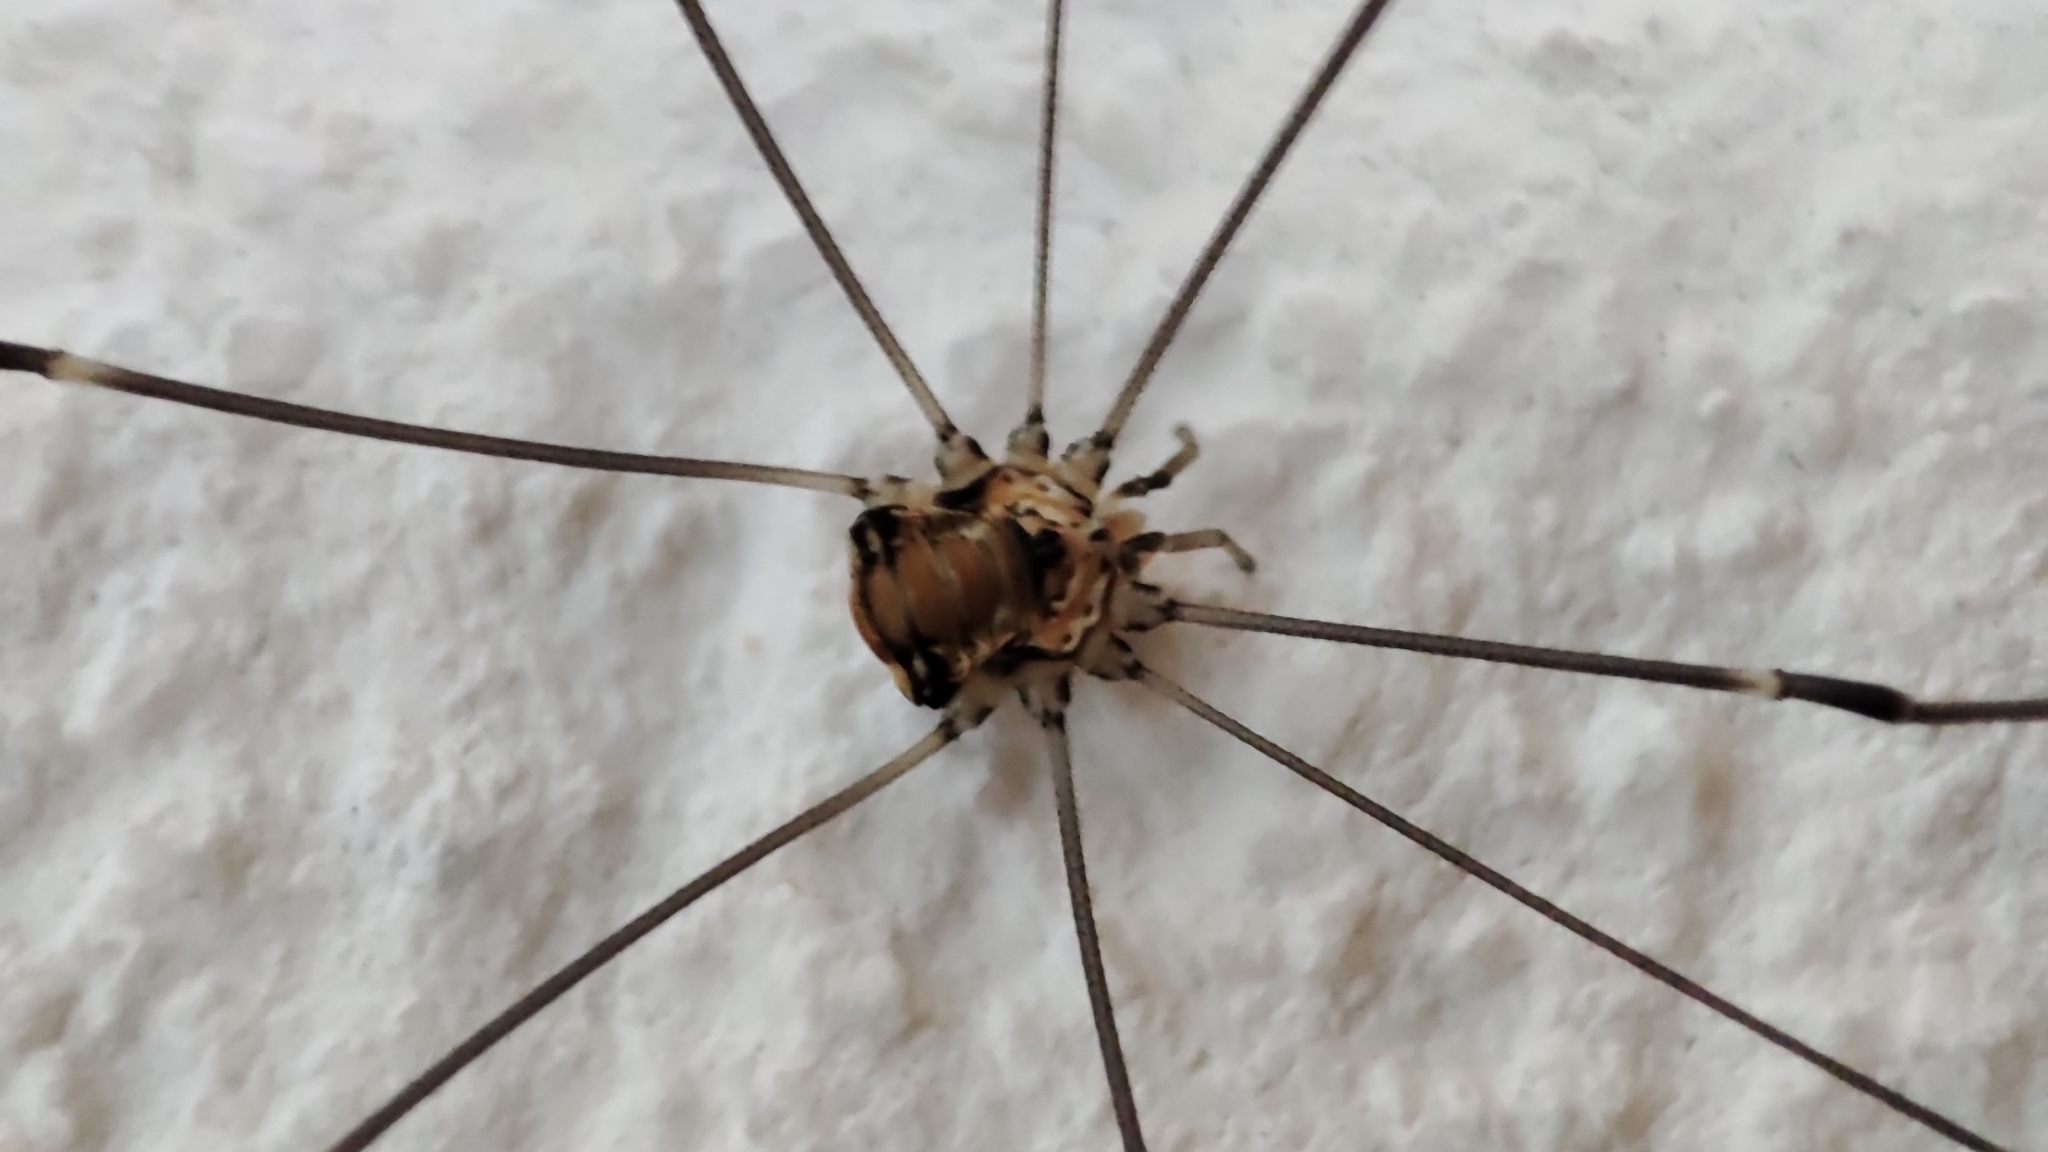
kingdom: Animalia
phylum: Arthropoda
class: Arachnida
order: Opiliones
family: Sclerosomatidae
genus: Leiobunum
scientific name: Leiobunum limbatum
